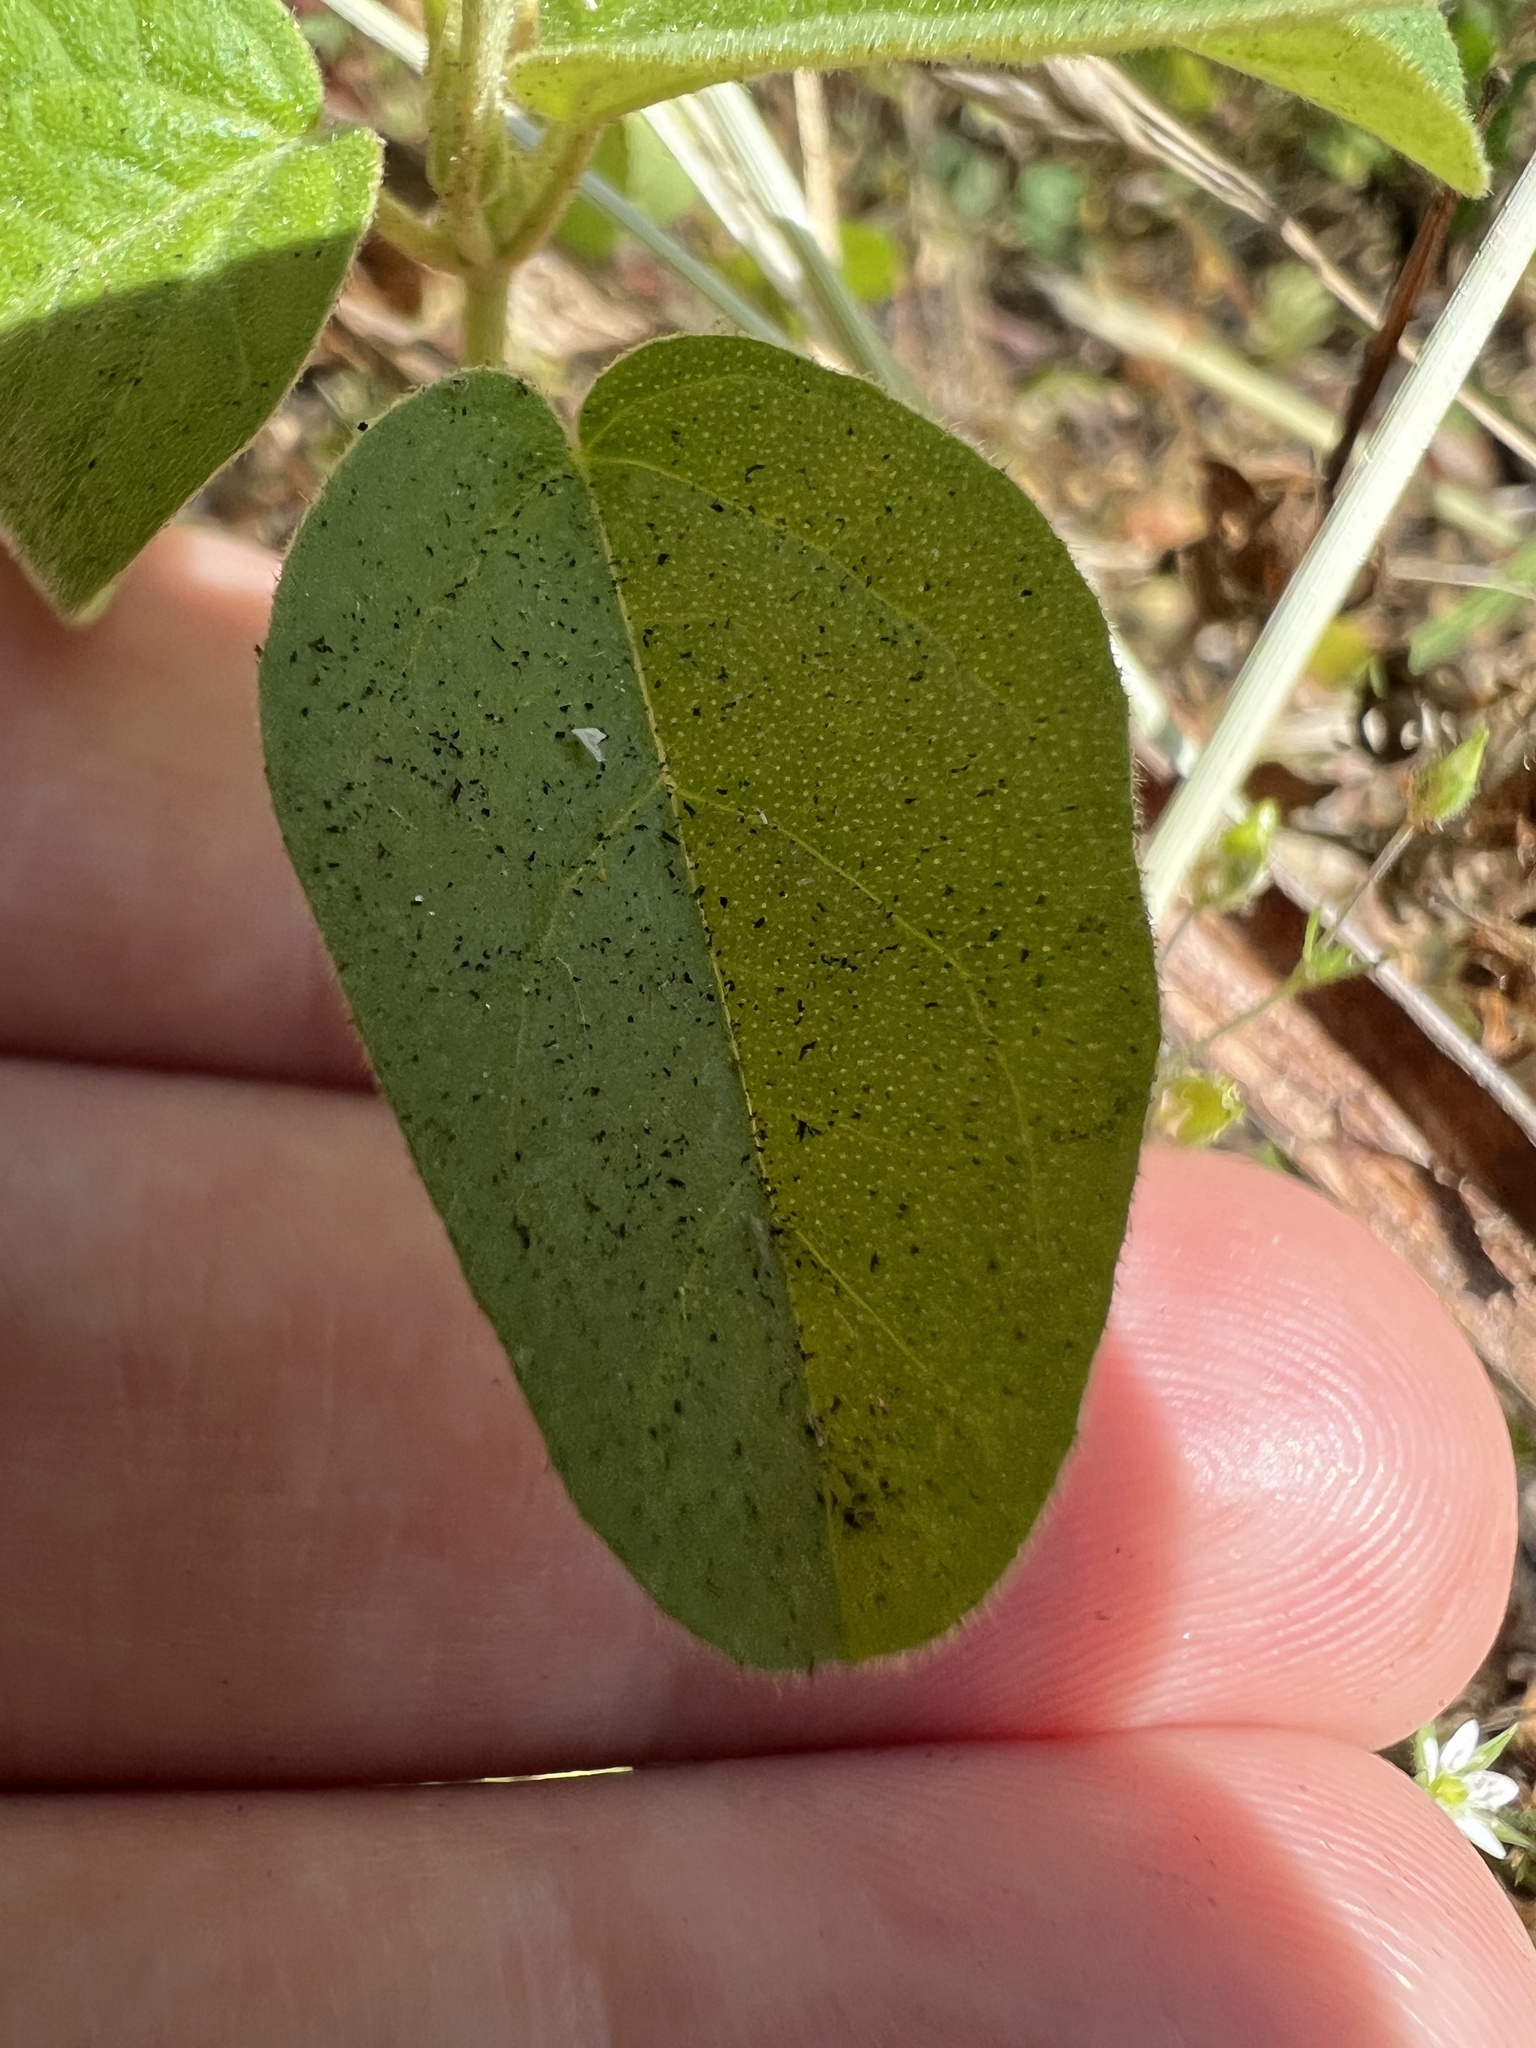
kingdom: Plantae
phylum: Tracheophyta
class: Magnoliopsida
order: Malpighiales
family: Euphorbiaceae
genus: Croton
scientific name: Croton monanthogynus
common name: One-seed croton
